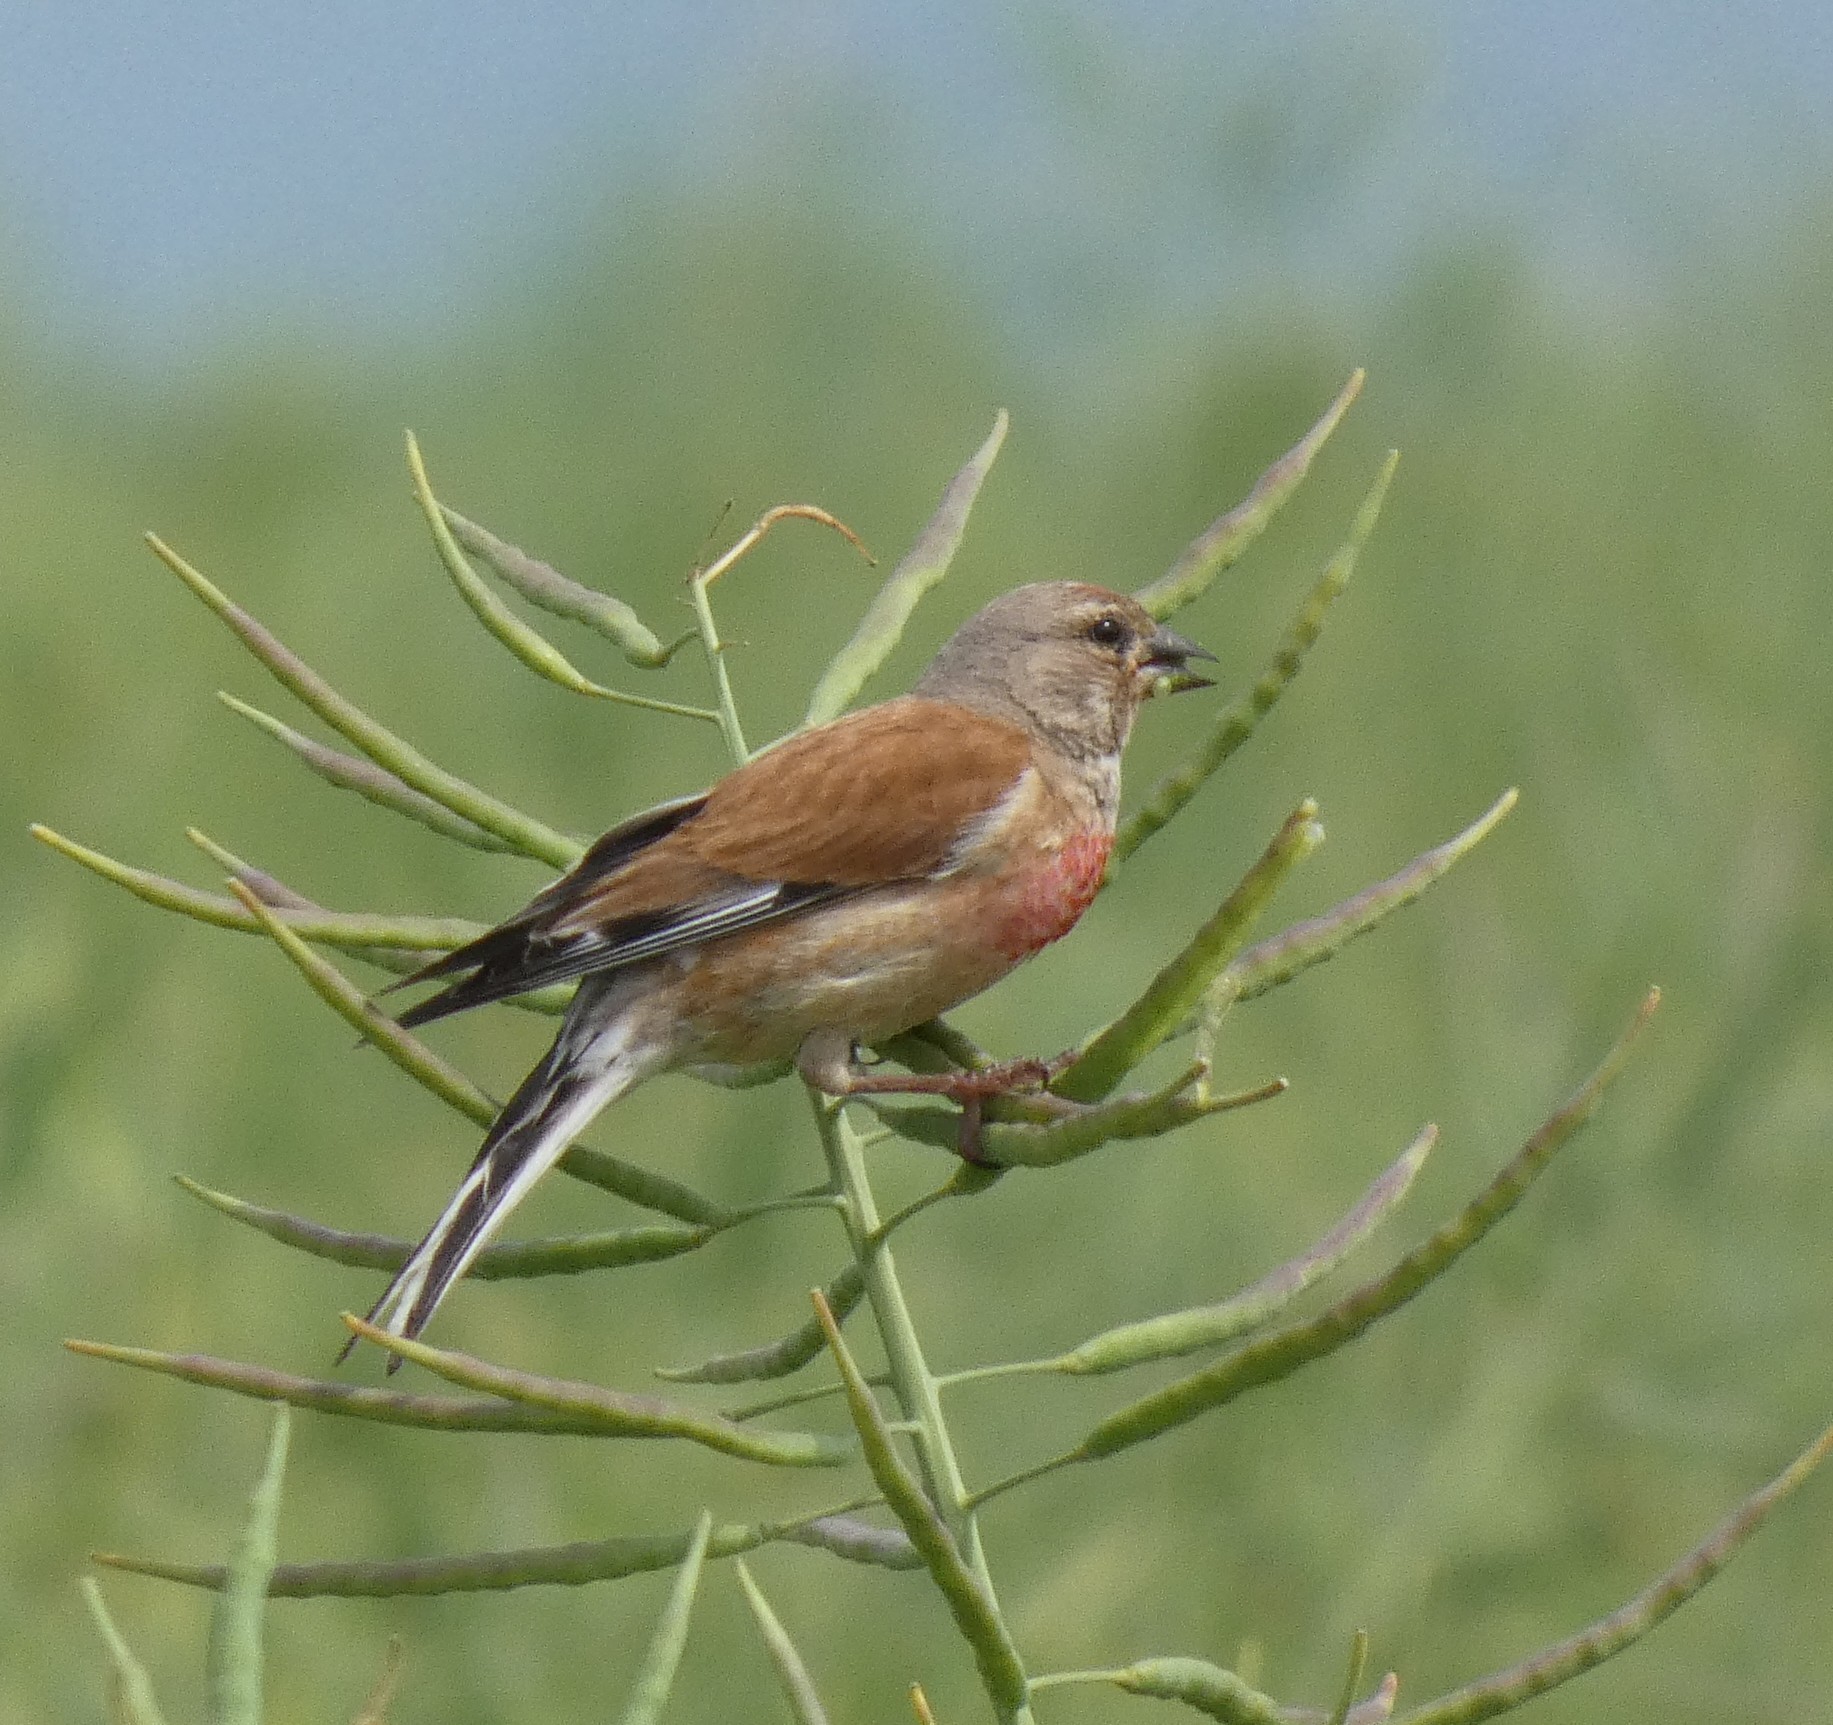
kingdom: Animalia
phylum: Chordata
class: Aves
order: Passeriformes
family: Fringillidae
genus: Linaria
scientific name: Linaria cannabina
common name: Common linnet
